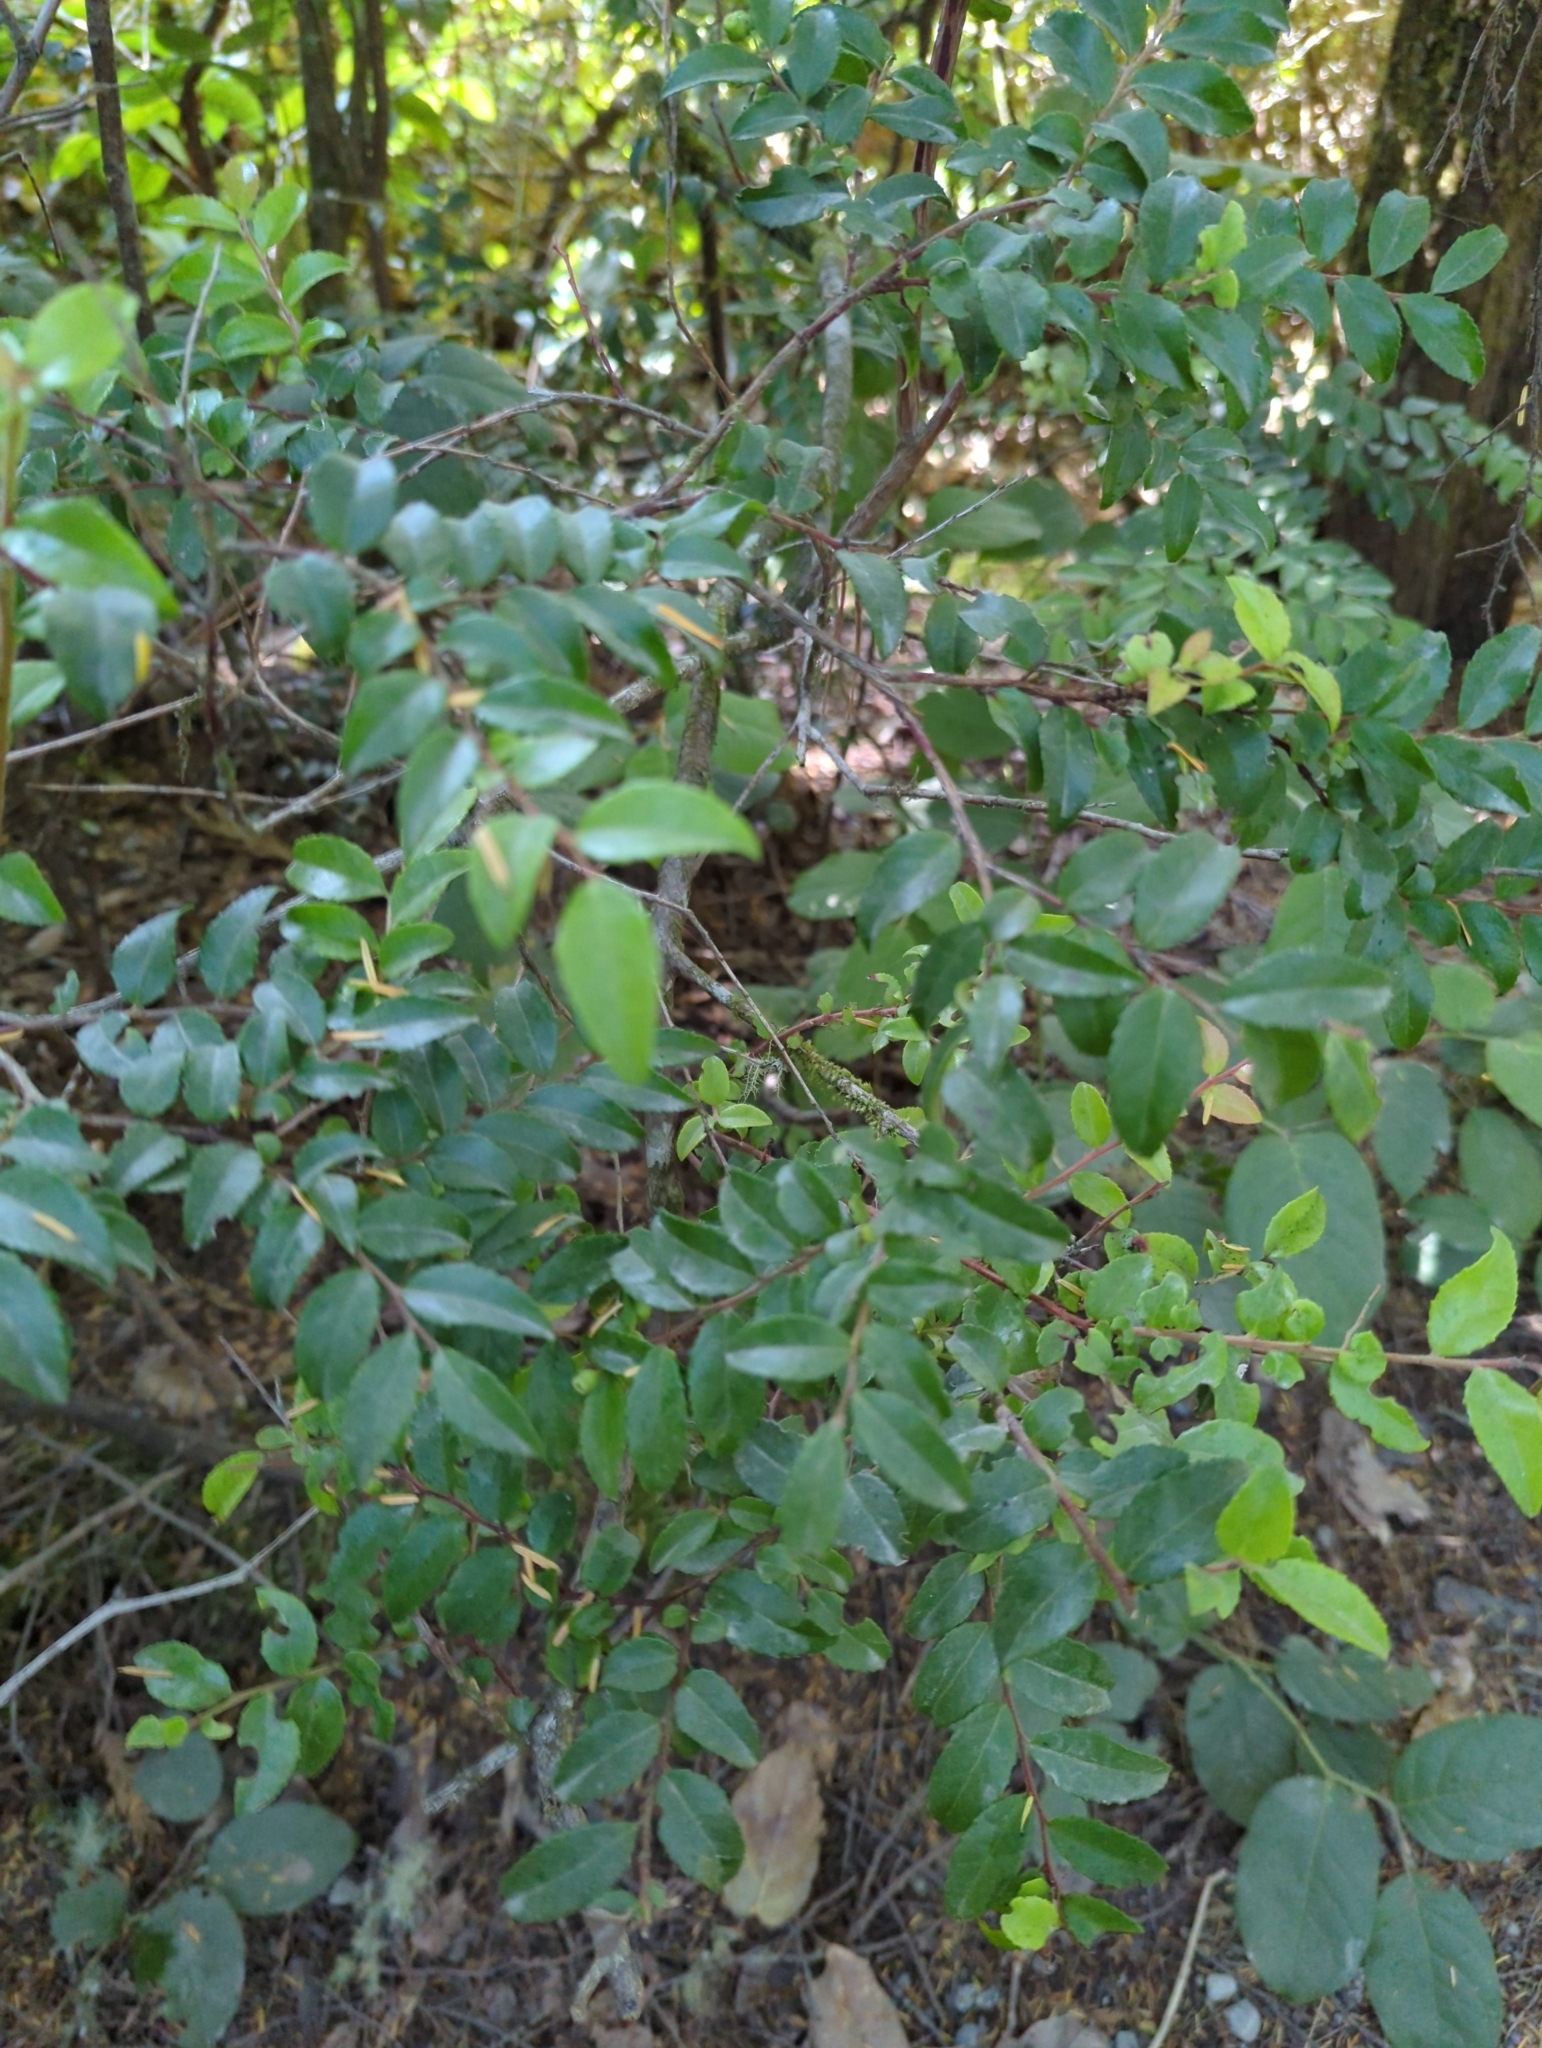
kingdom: Plantae
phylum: Tracheophyta
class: Magnoliopsida
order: Ericales
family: Ericaceae
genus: Vaccinium
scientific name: Vaccinium ovatum
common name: California-huckleberry
